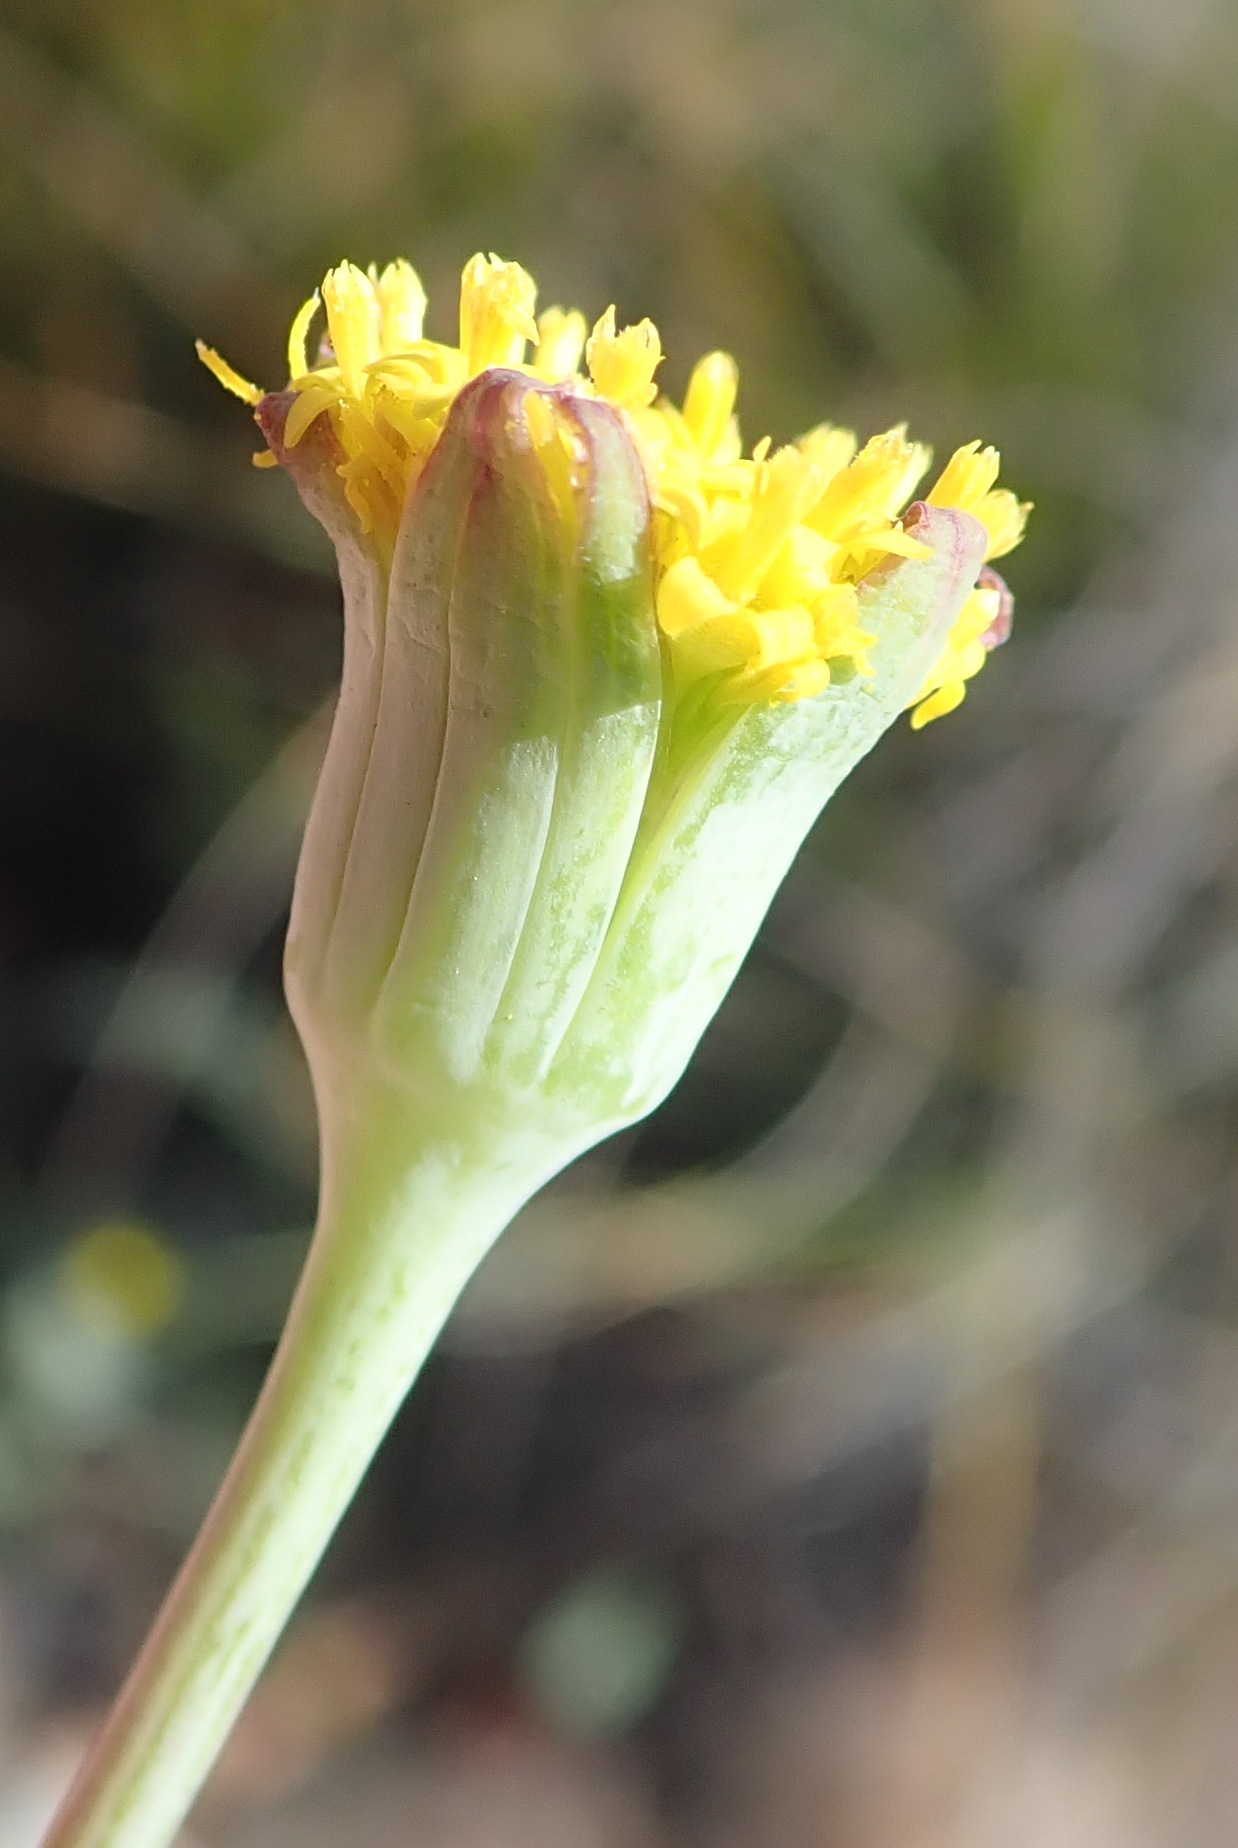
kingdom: Plantae
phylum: Tracheophyta
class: Magnoliopsida
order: Asterales
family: Asteraceae
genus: Othonna
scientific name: Othonna gymnodiscus
